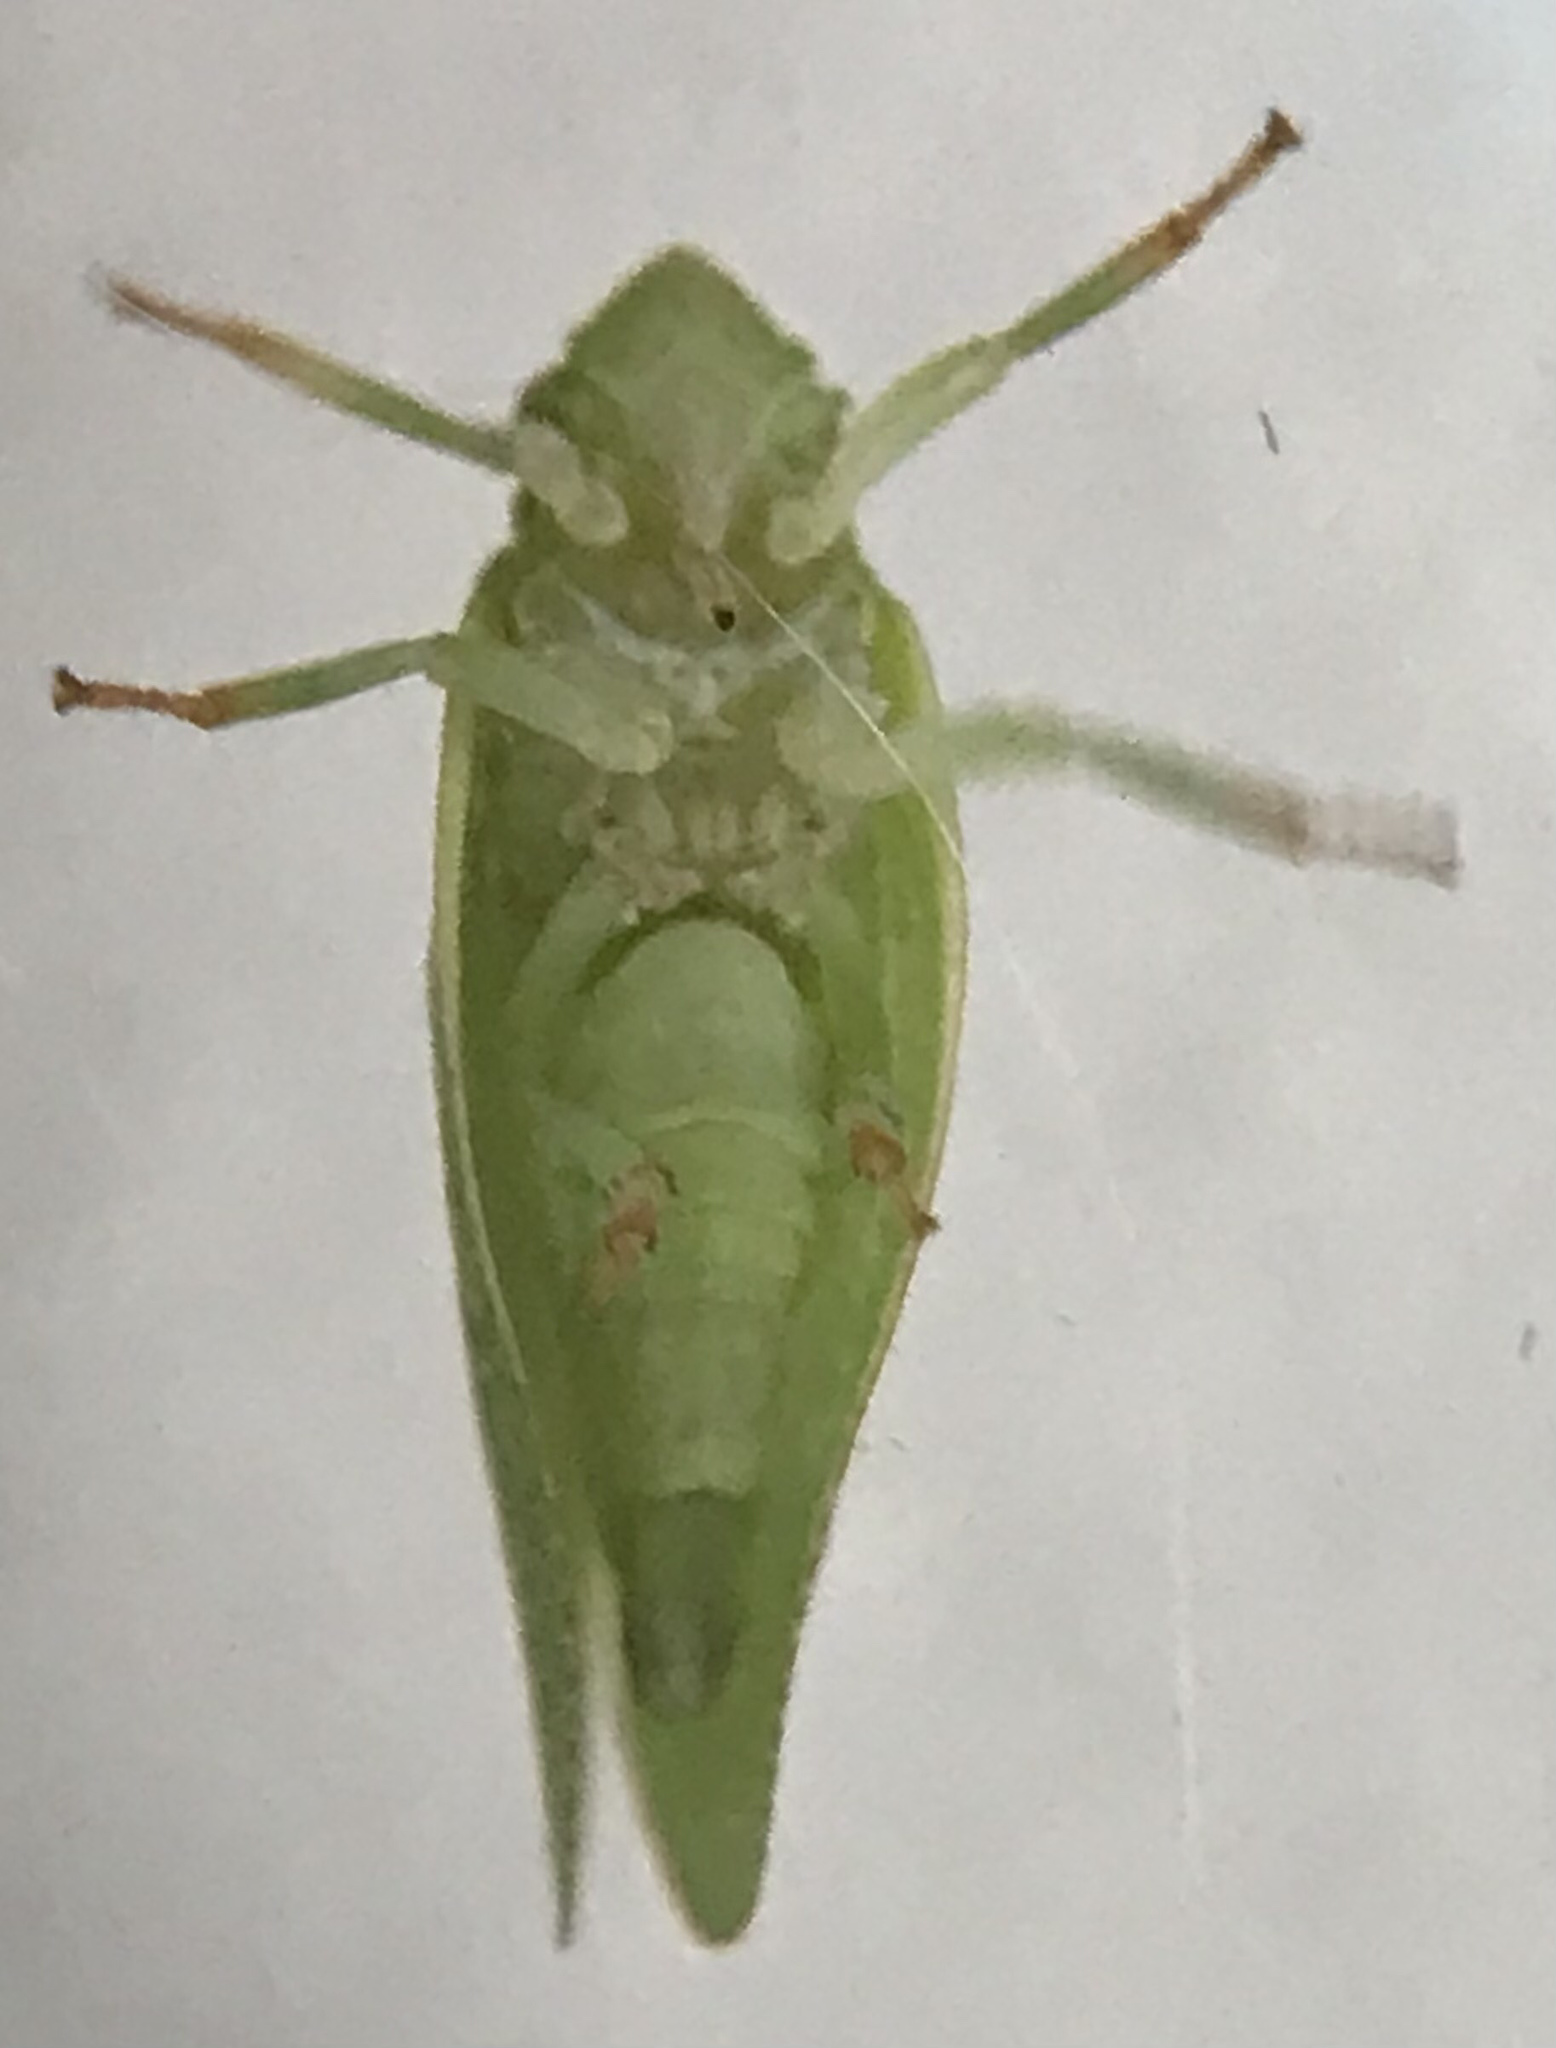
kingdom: Animalia
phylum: Arthropoda
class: Insecta
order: Hemiptera
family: Acanaloniidae
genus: Acanalonia
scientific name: Acanalonia conica
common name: Green cone-headed planthopper
